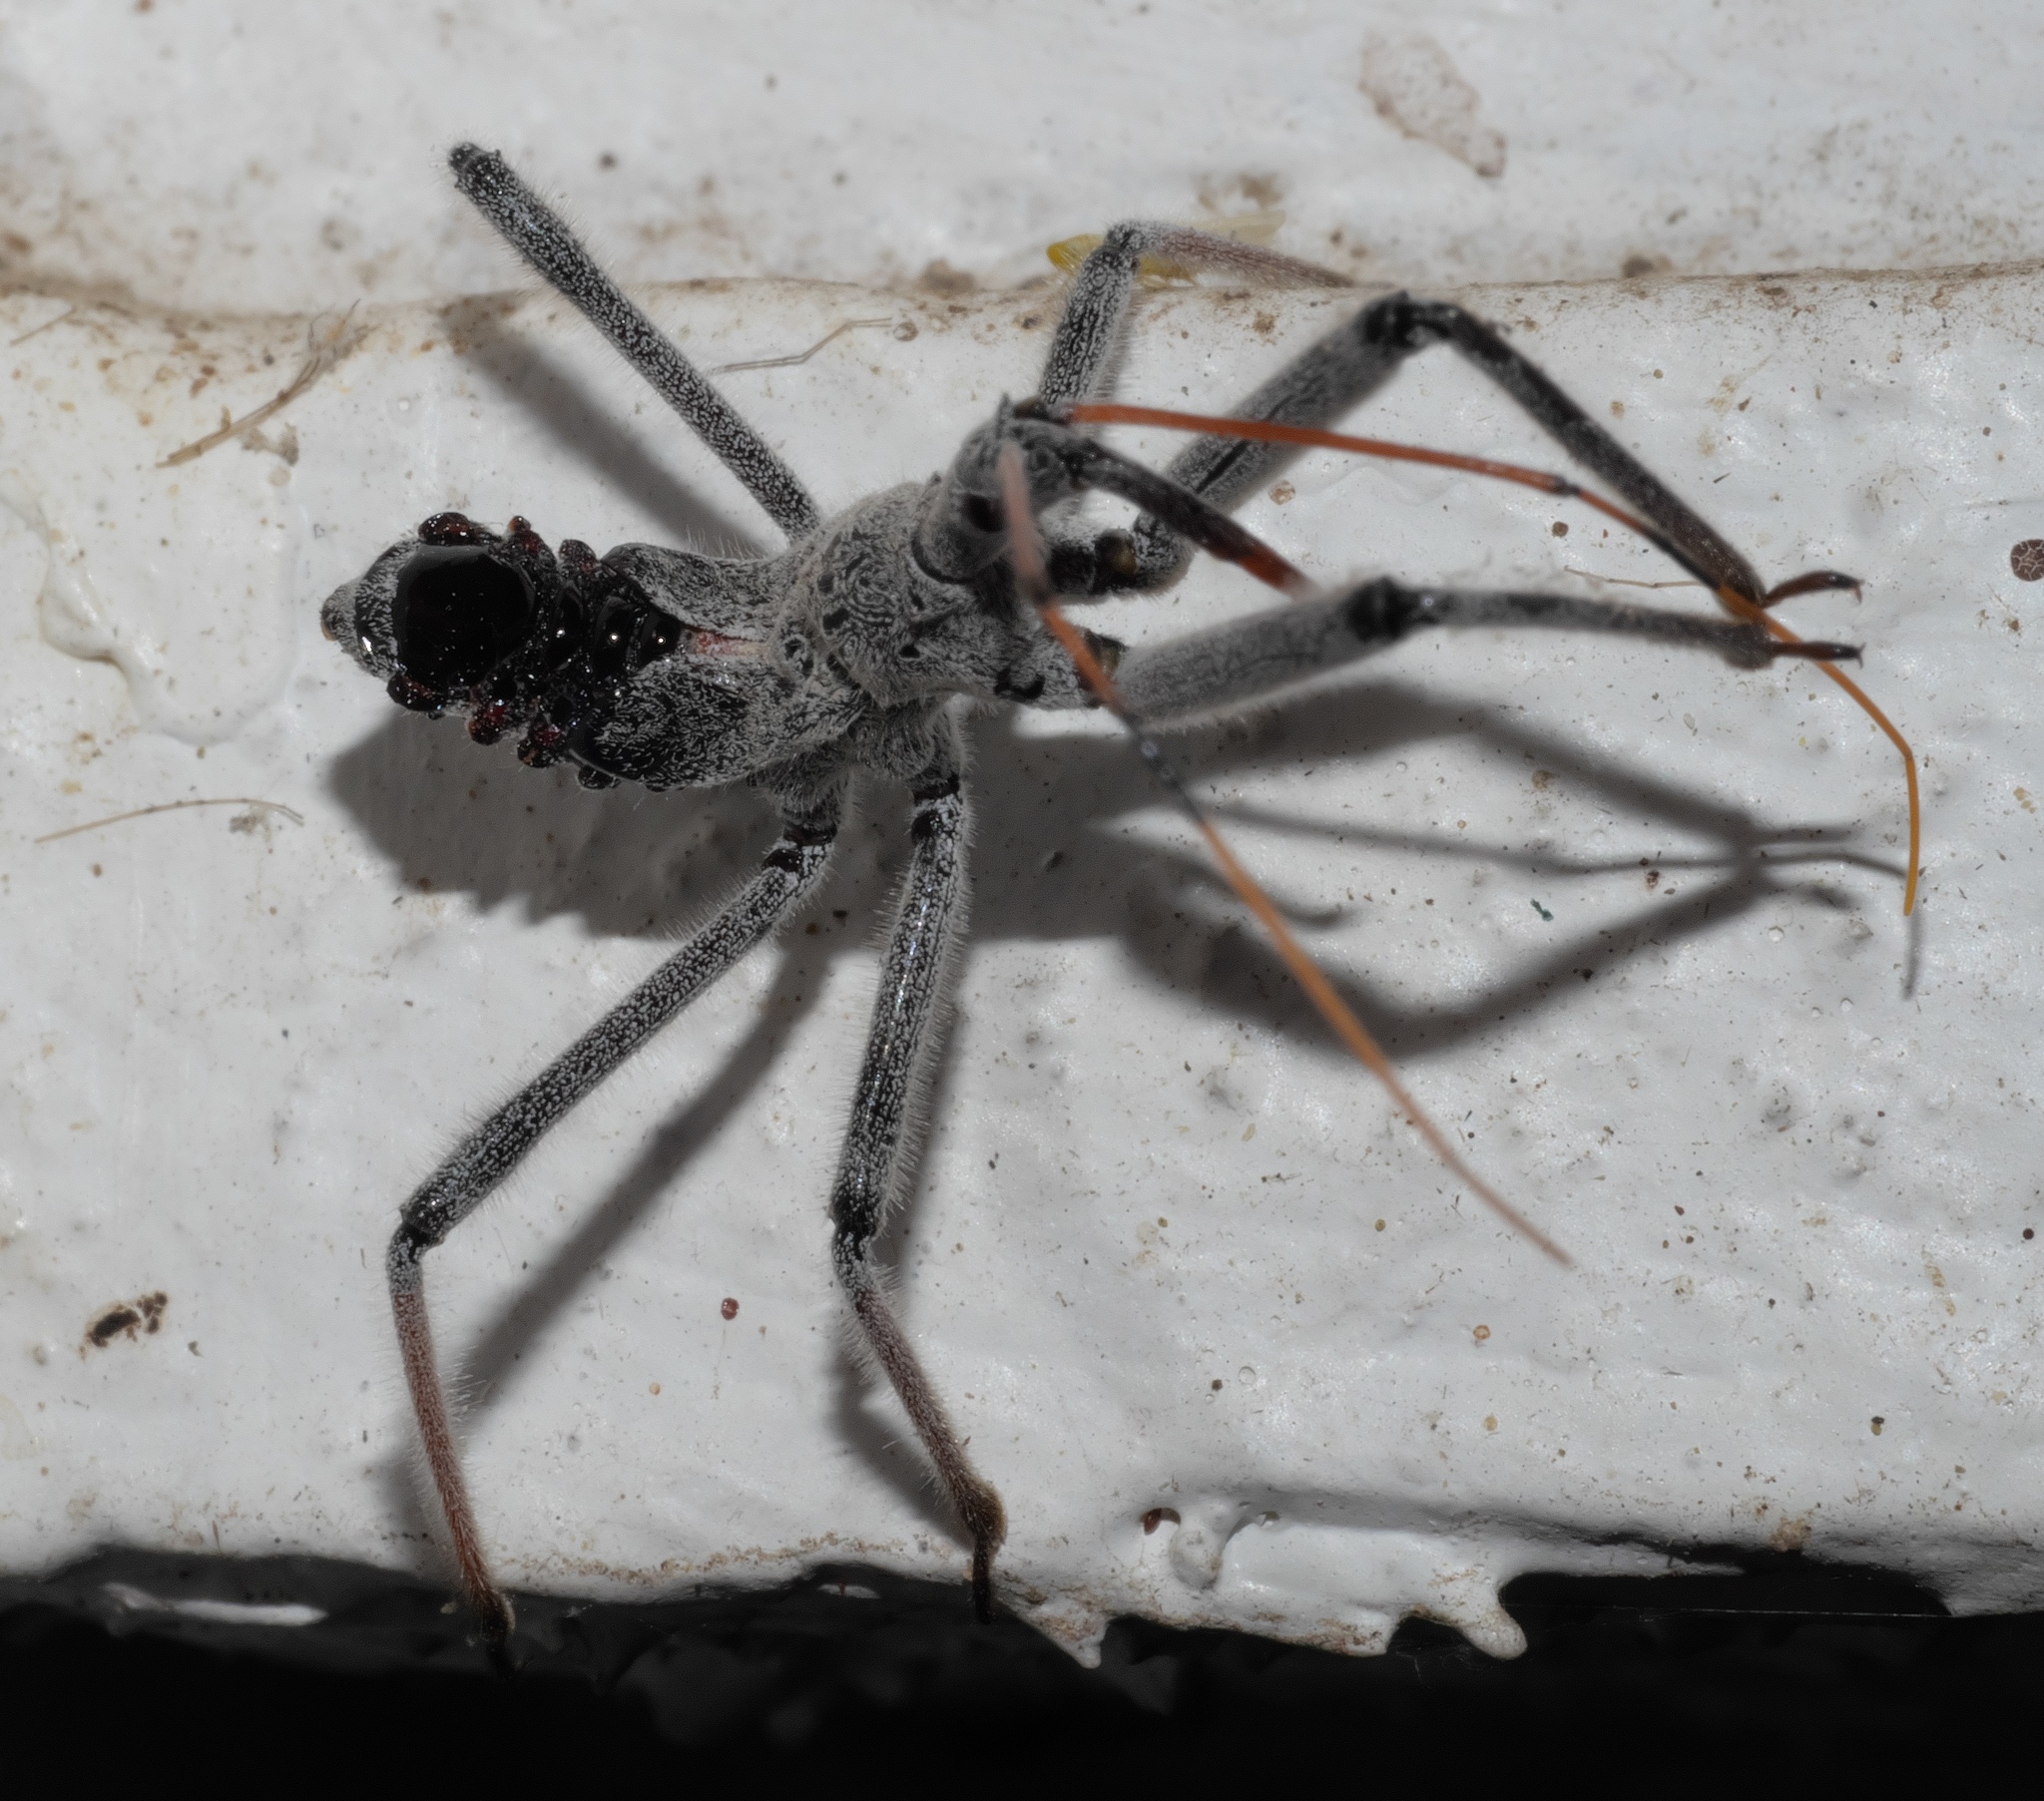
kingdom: Animalia
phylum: Arthropoda
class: Insecta
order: Hemiptera
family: Reduviidae
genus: Arilus
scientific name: Arilus cristatus
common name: North american wheel bug
